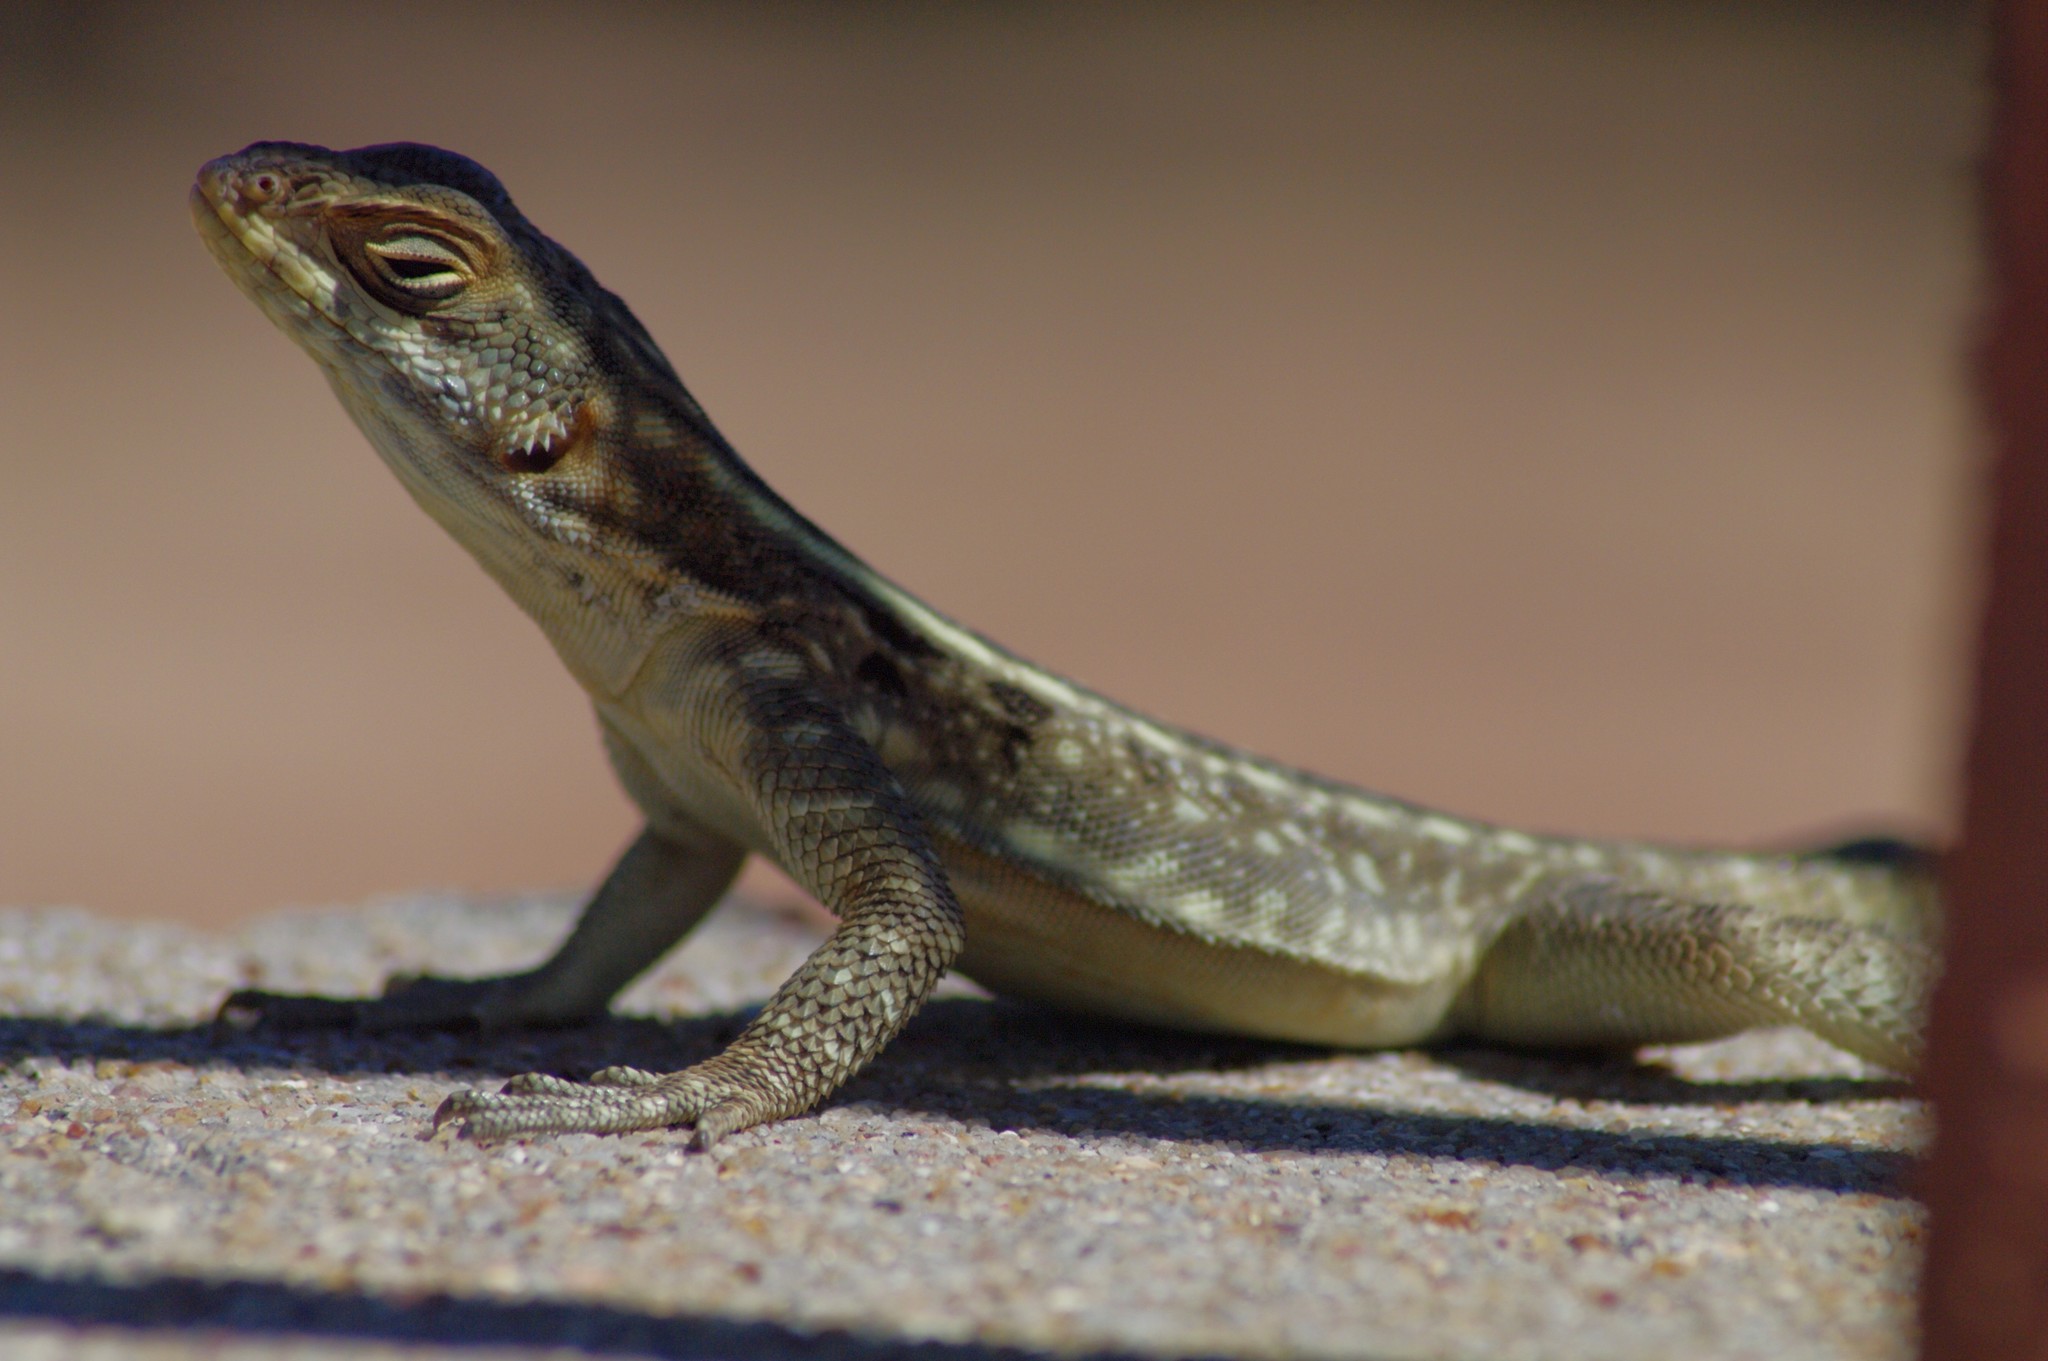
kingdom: Animalia
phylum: Chordata
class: Squamata
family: Opluridae
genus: Oplurus
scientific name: Oplurus quadrimaculatus
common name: Duméril's madagascar swift
